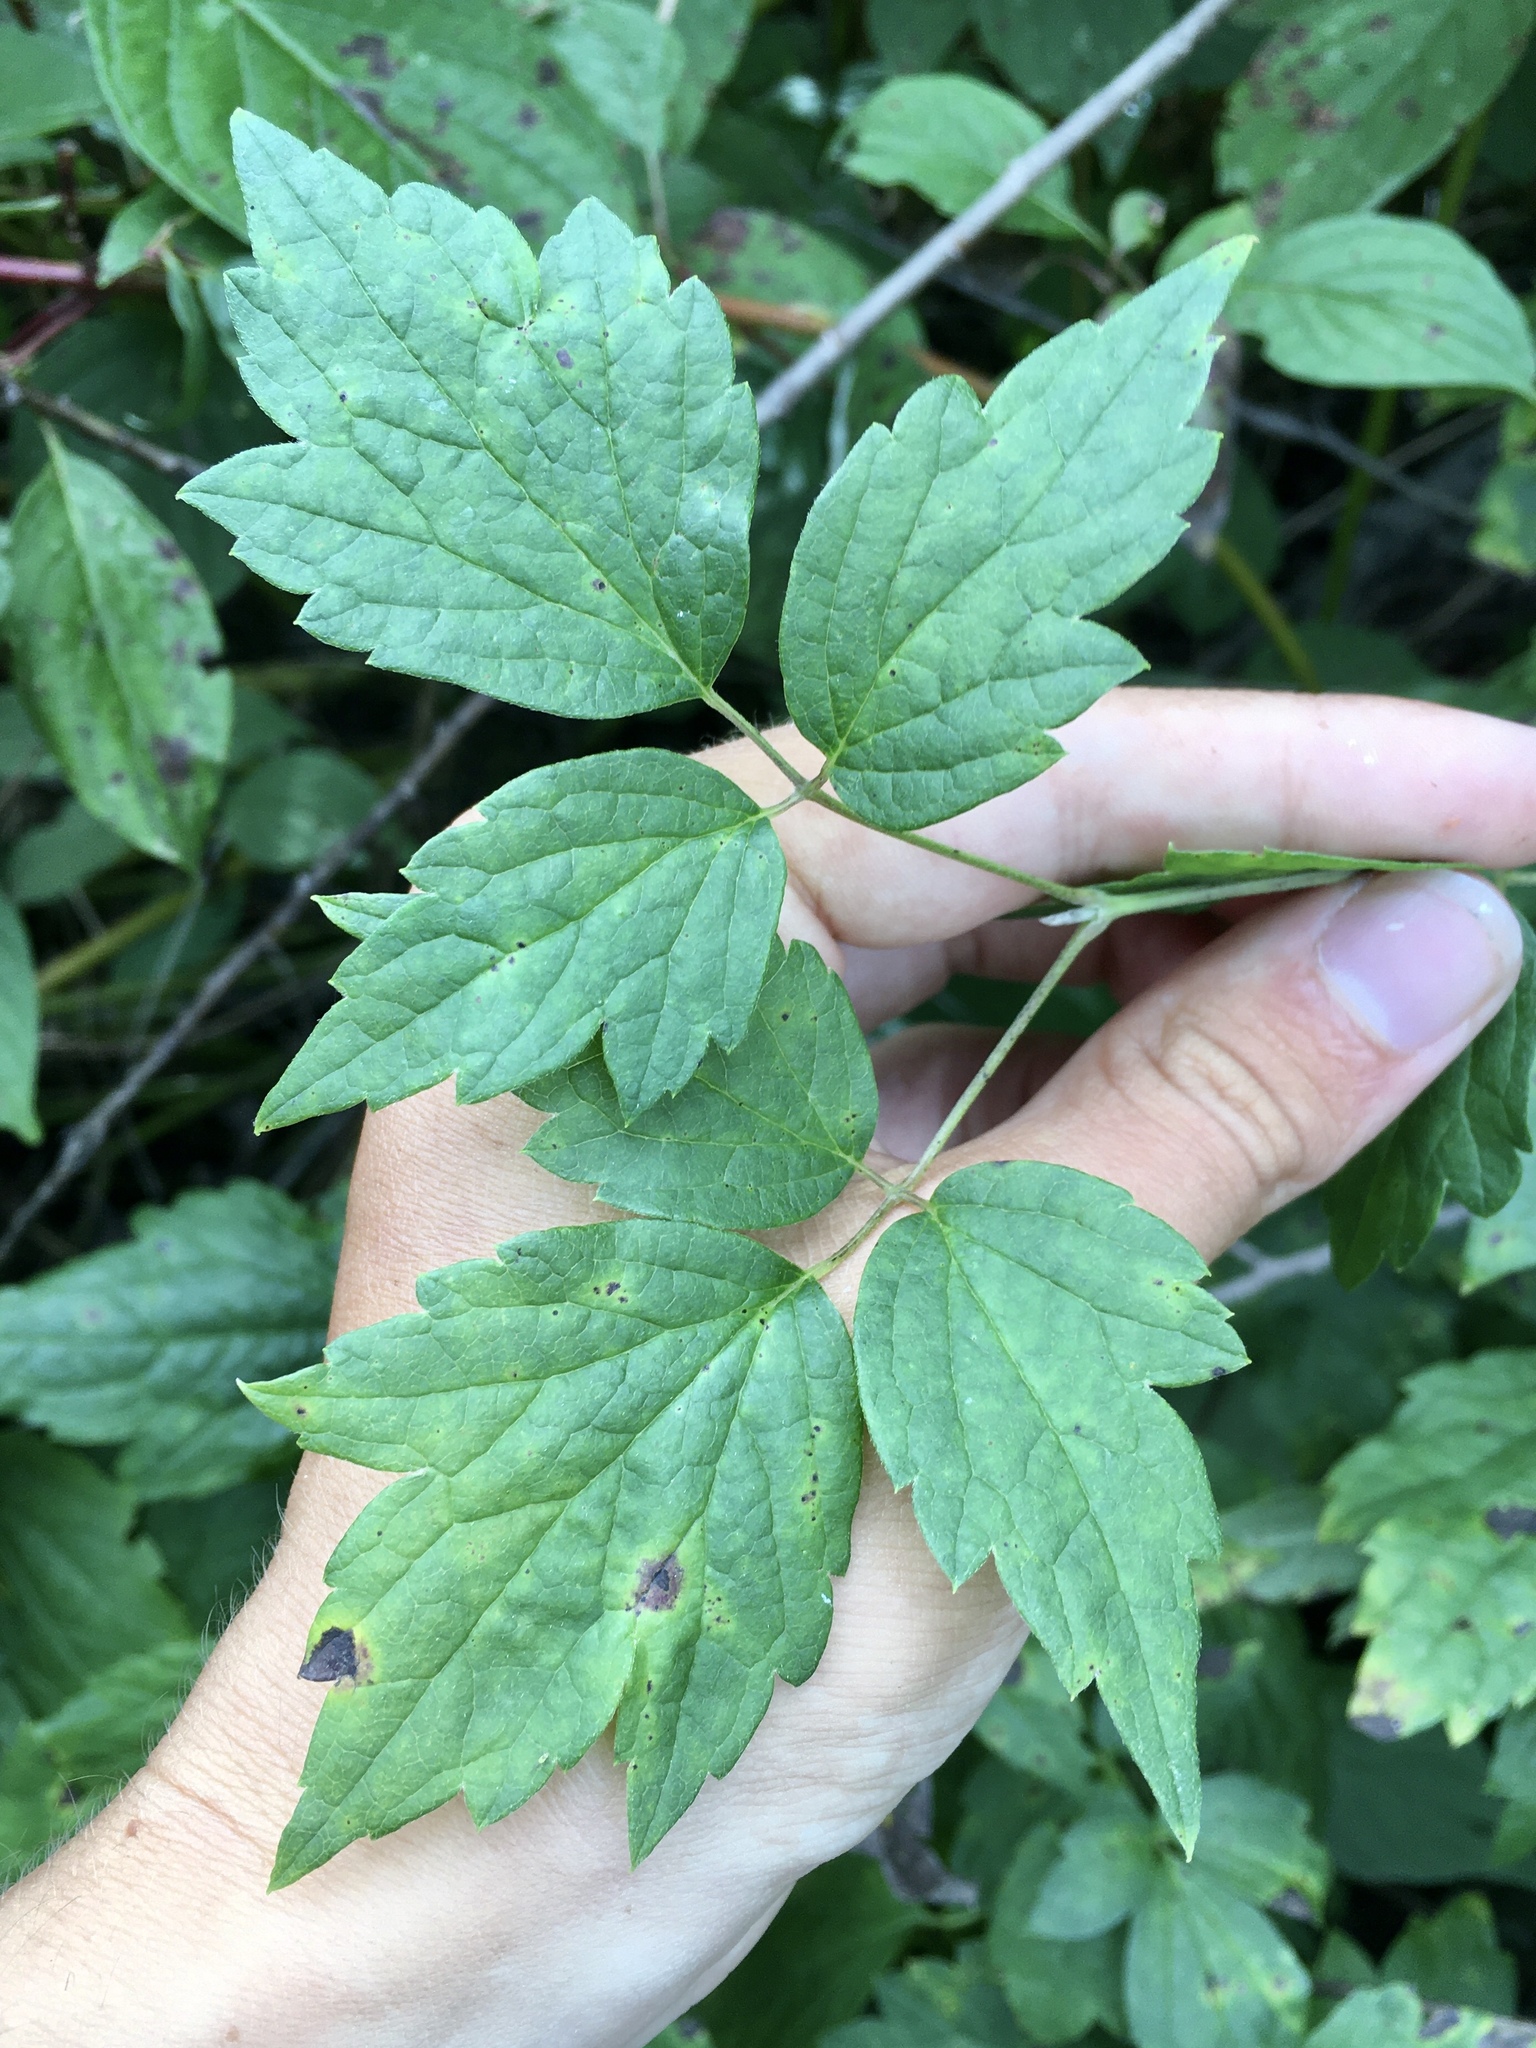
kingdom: Plantae
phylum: Tracheophyta
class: Magnoliopsida
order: Ranunculales
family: Ranunculaceae
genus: Clematis
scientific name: Clematis virginiana
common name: Virgin's-bower
